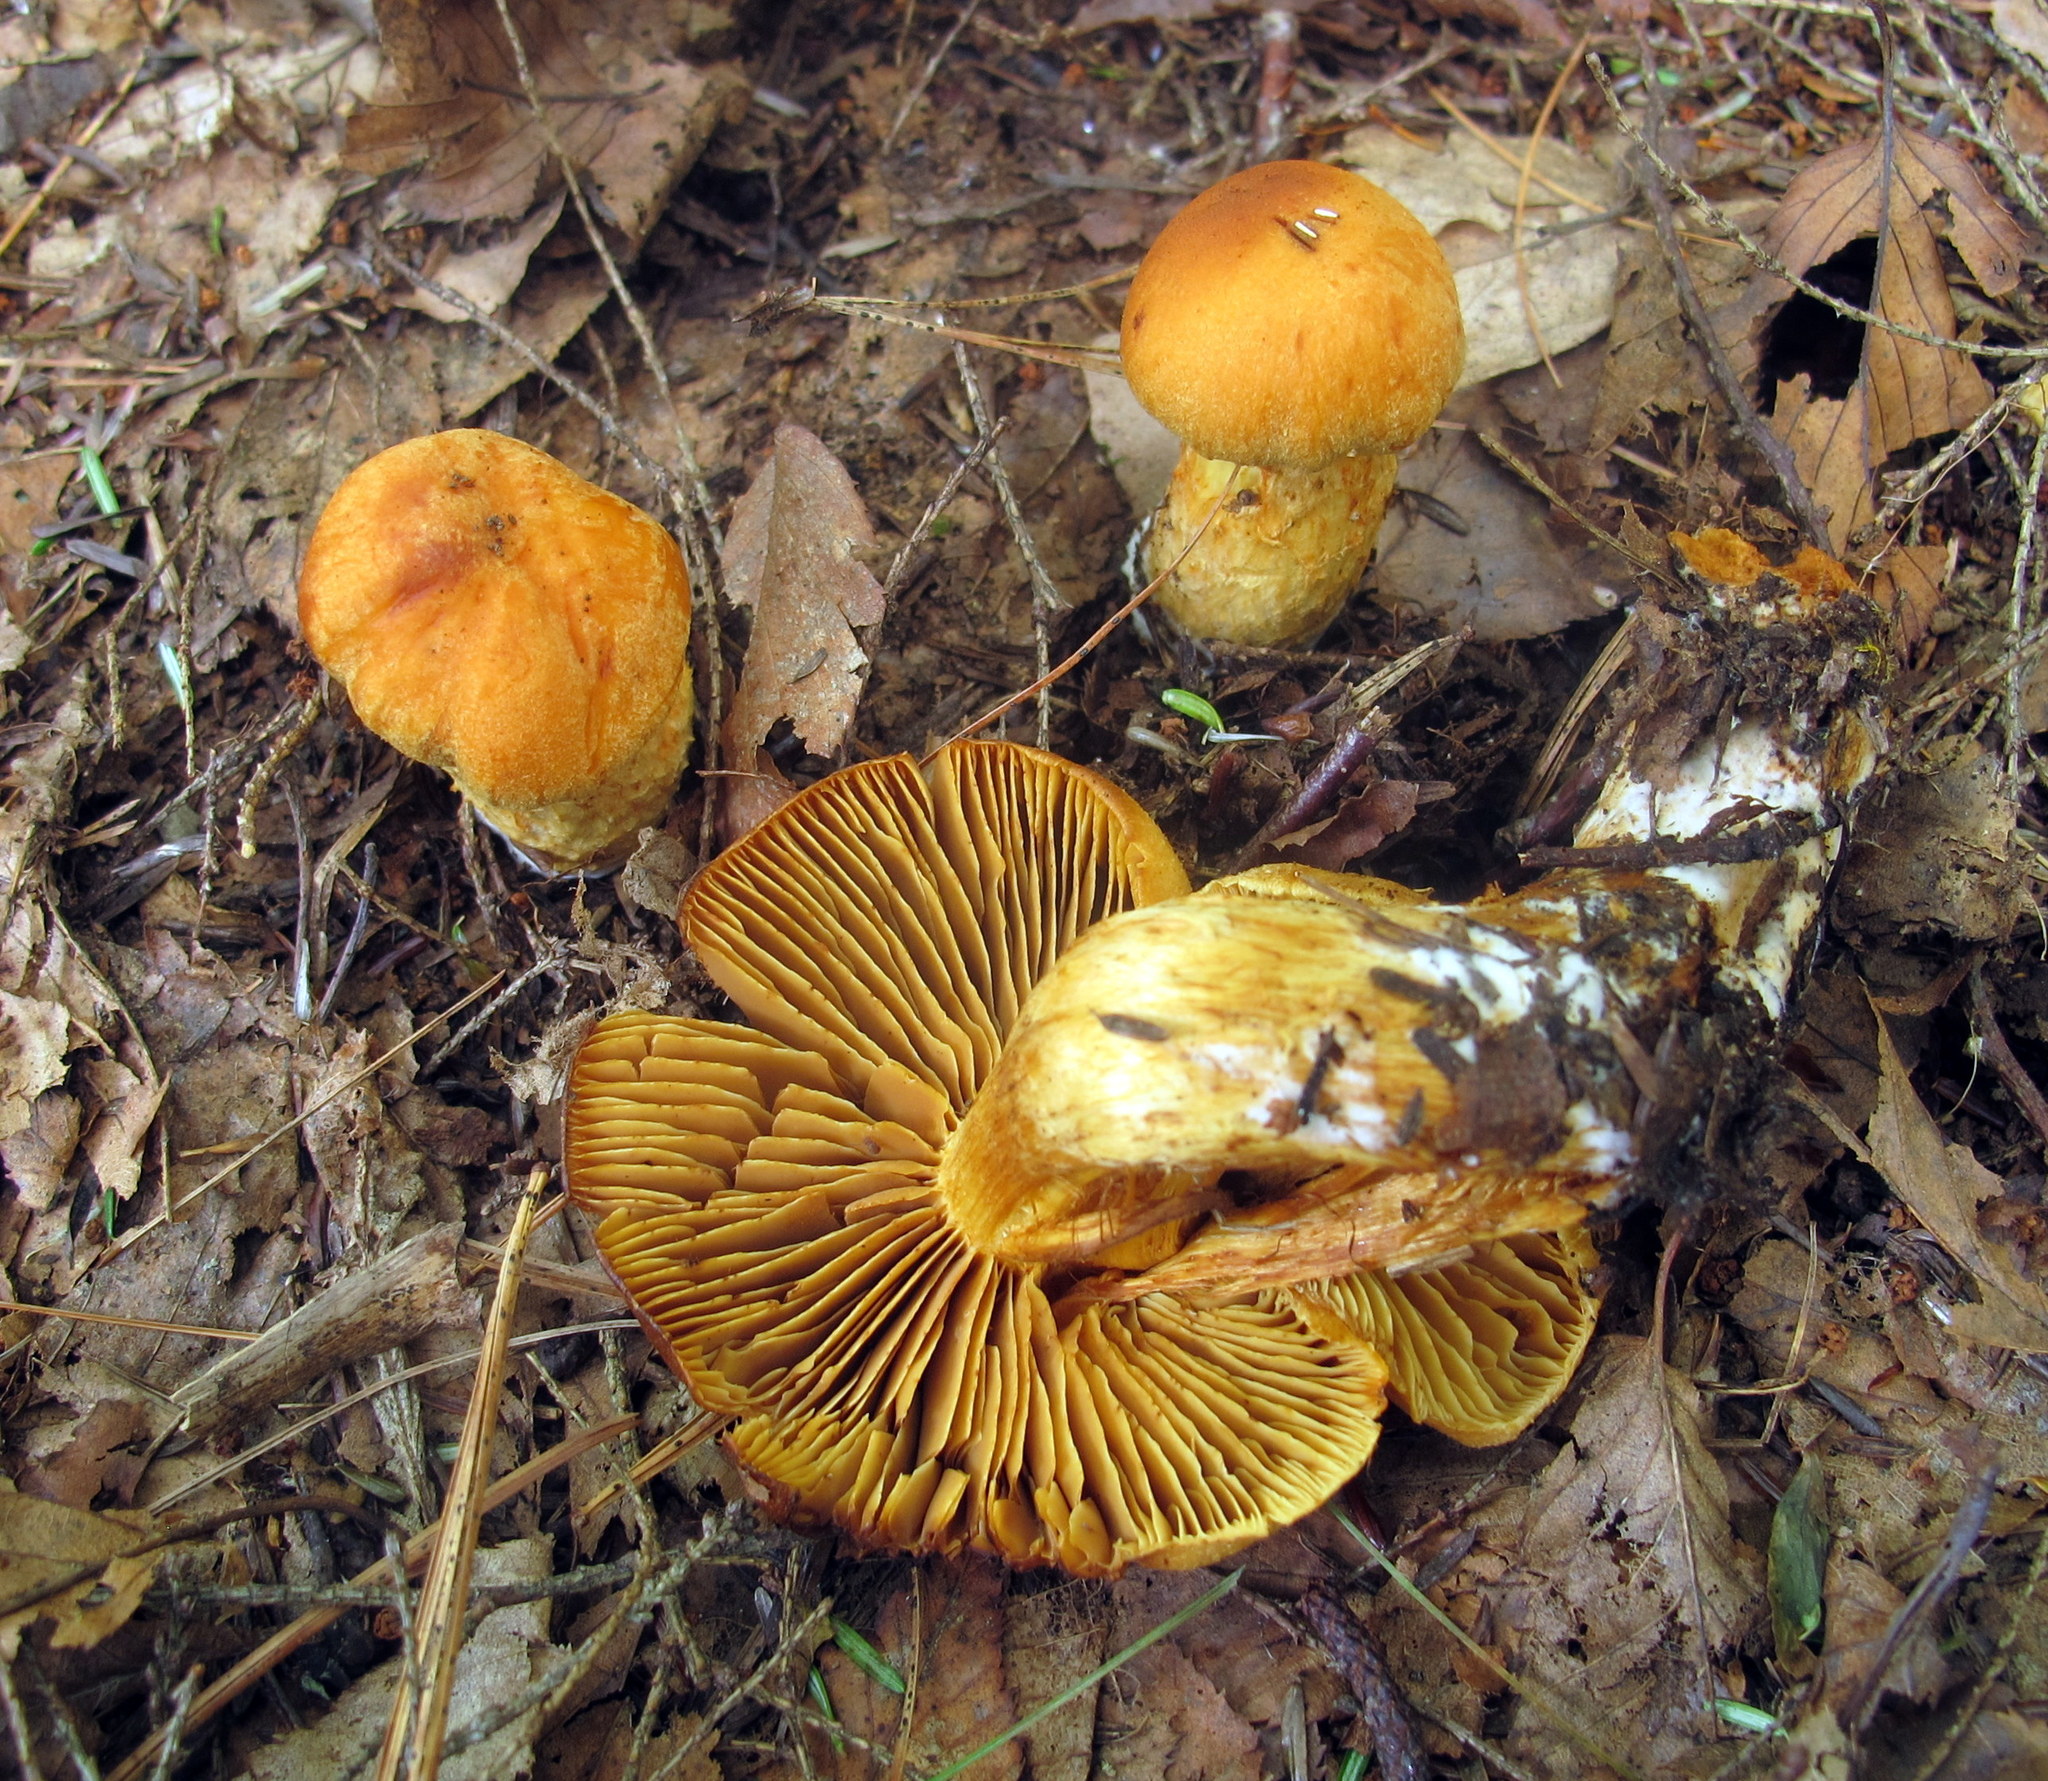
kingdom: Fungi
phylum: Basidiomycota
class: Agaricomycetes
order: Agaricales
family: Cortinariaceae
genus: Aureonarius
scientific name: Aureonarius limonius
